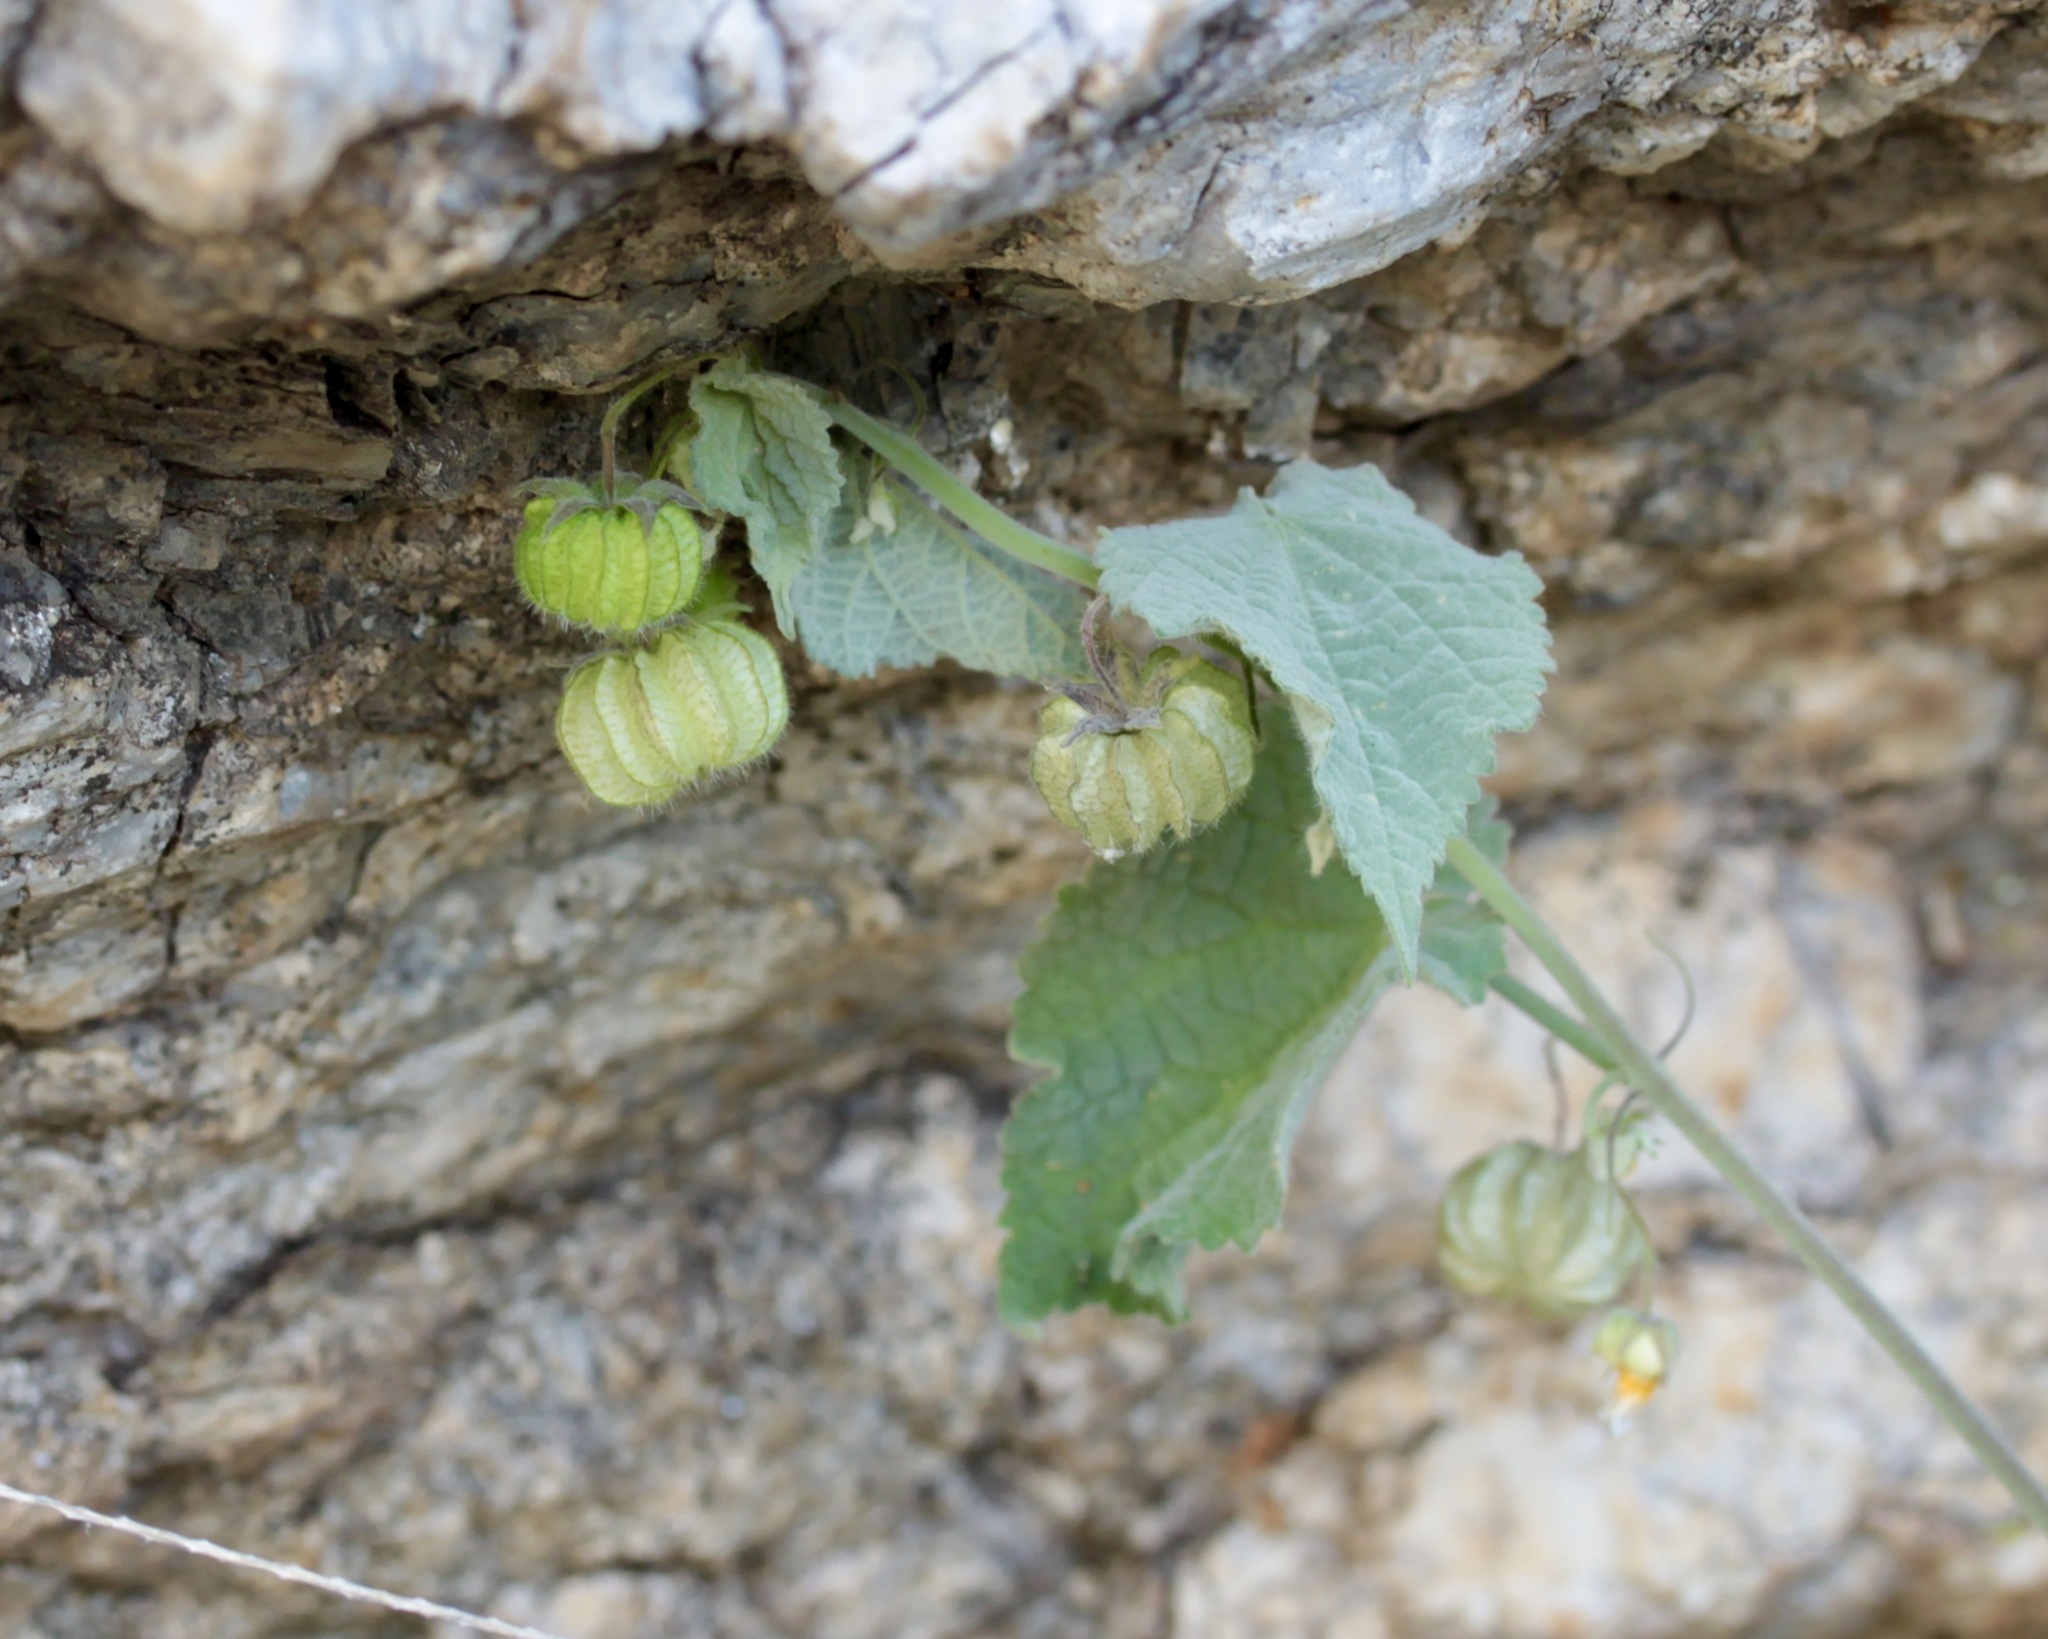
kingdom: Plantae
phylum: Tracheophyta
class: Magnoliopsida
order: Malvales
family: Malvaceae
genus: Herissantia
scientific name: Herissantia crispa
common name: Bladdermallow
